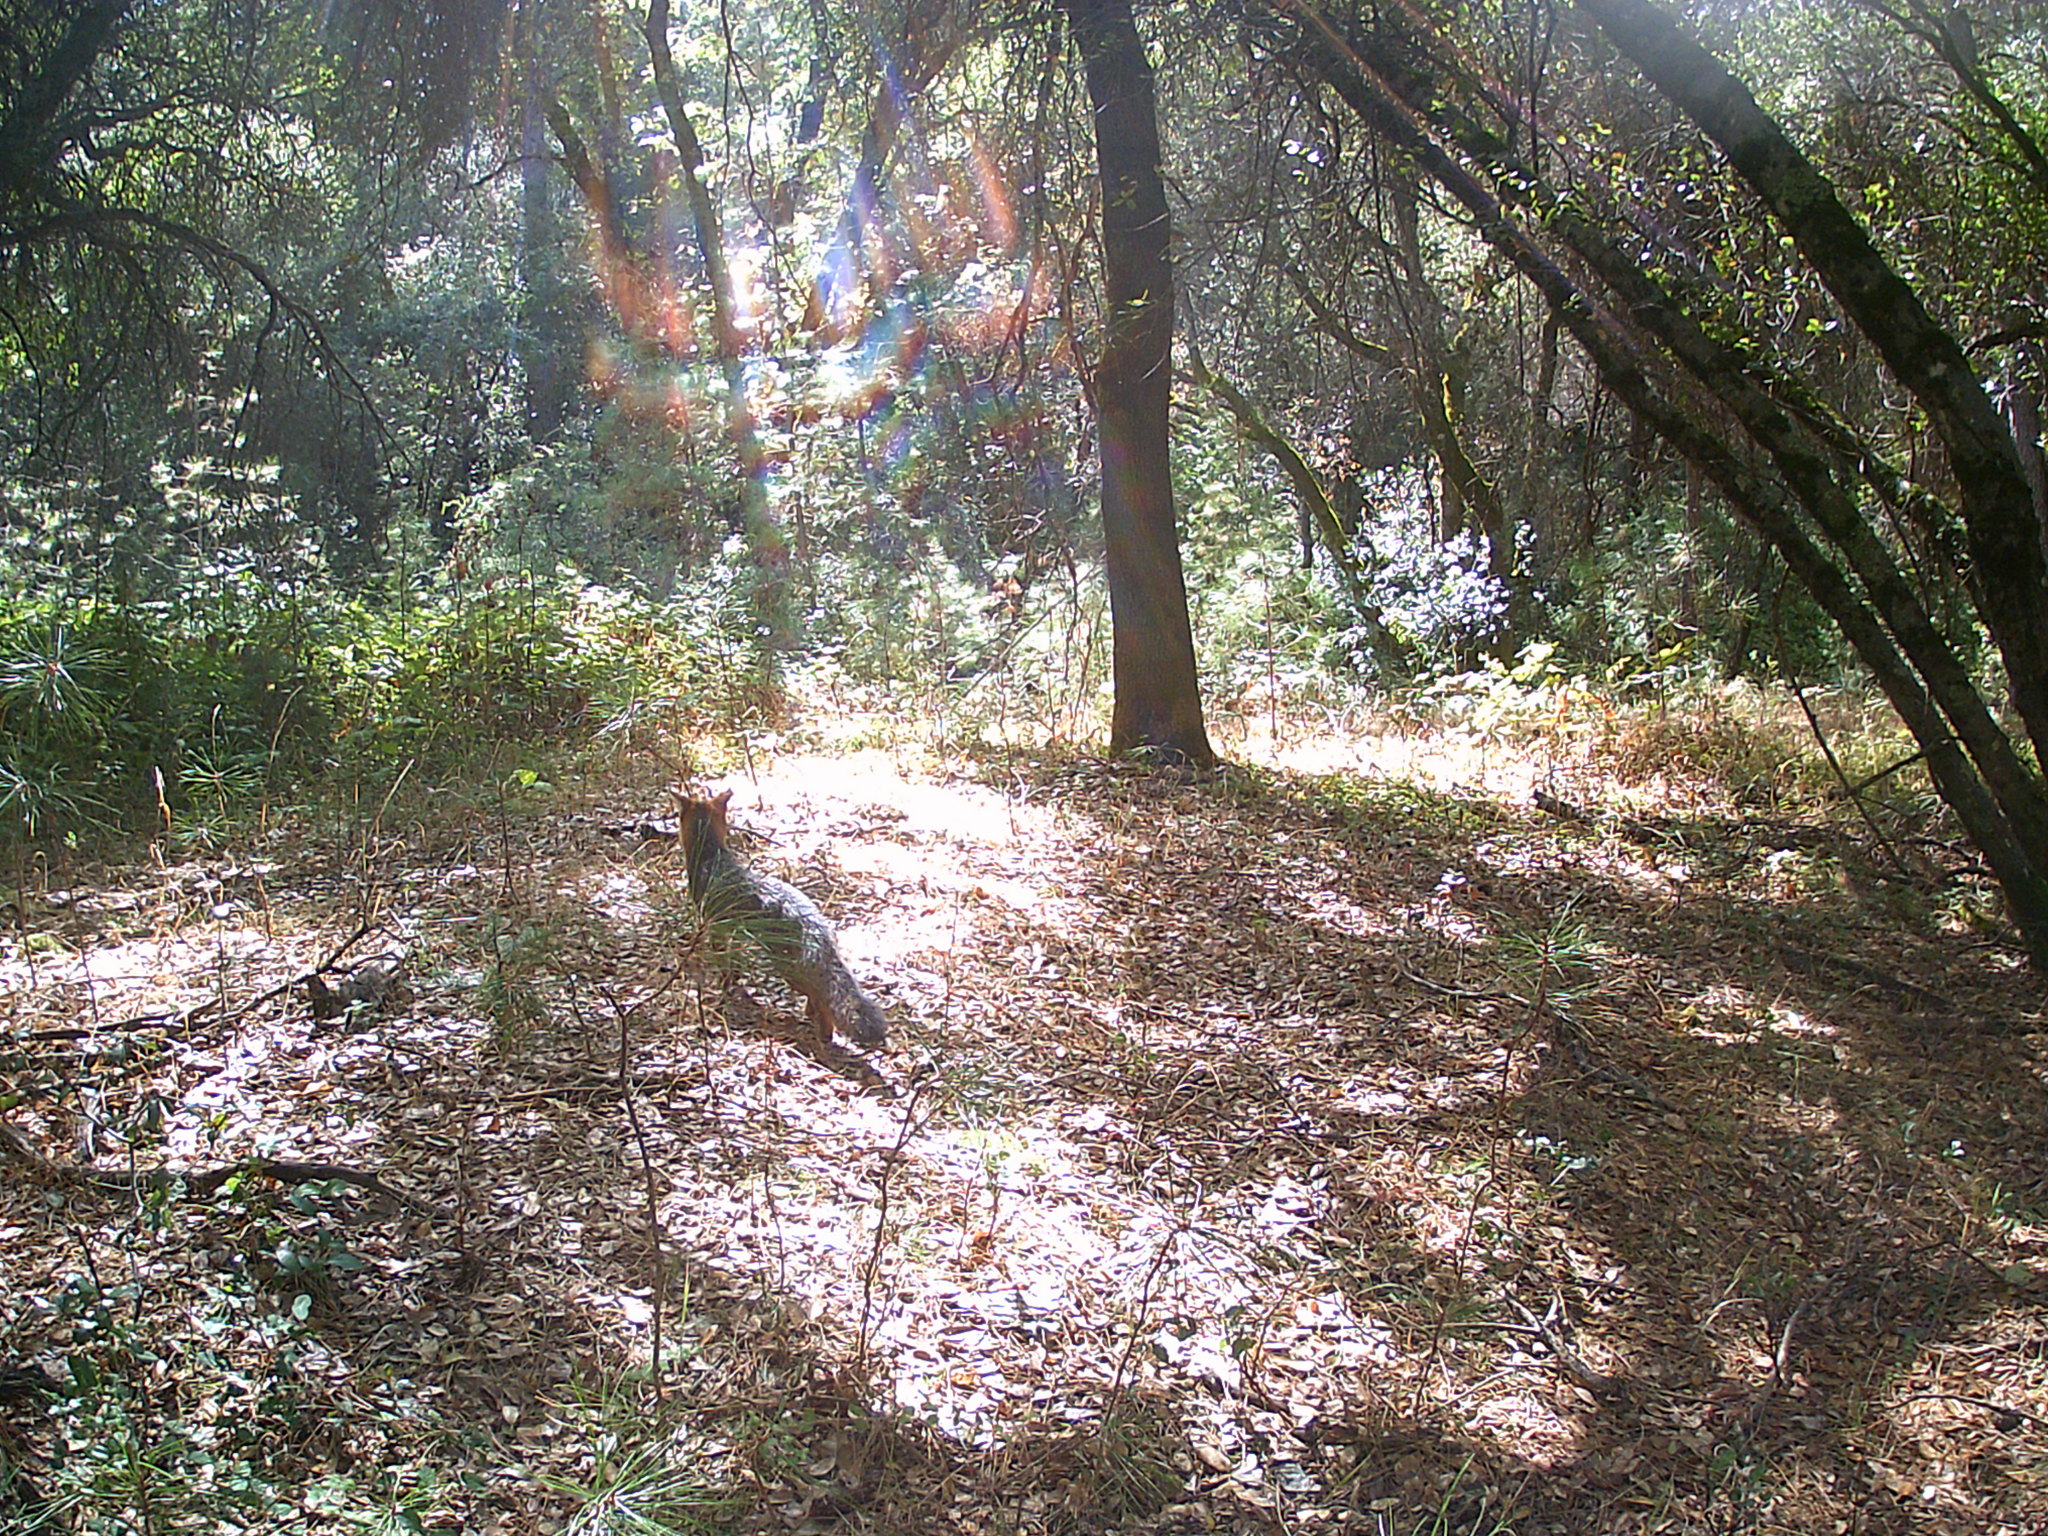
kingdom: Animalia
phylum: Chordata
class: Mammalia
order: Carnivora
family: Canidae
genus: Urocyon
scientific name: Urocyon cinereoargenteus
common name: Gray fox
